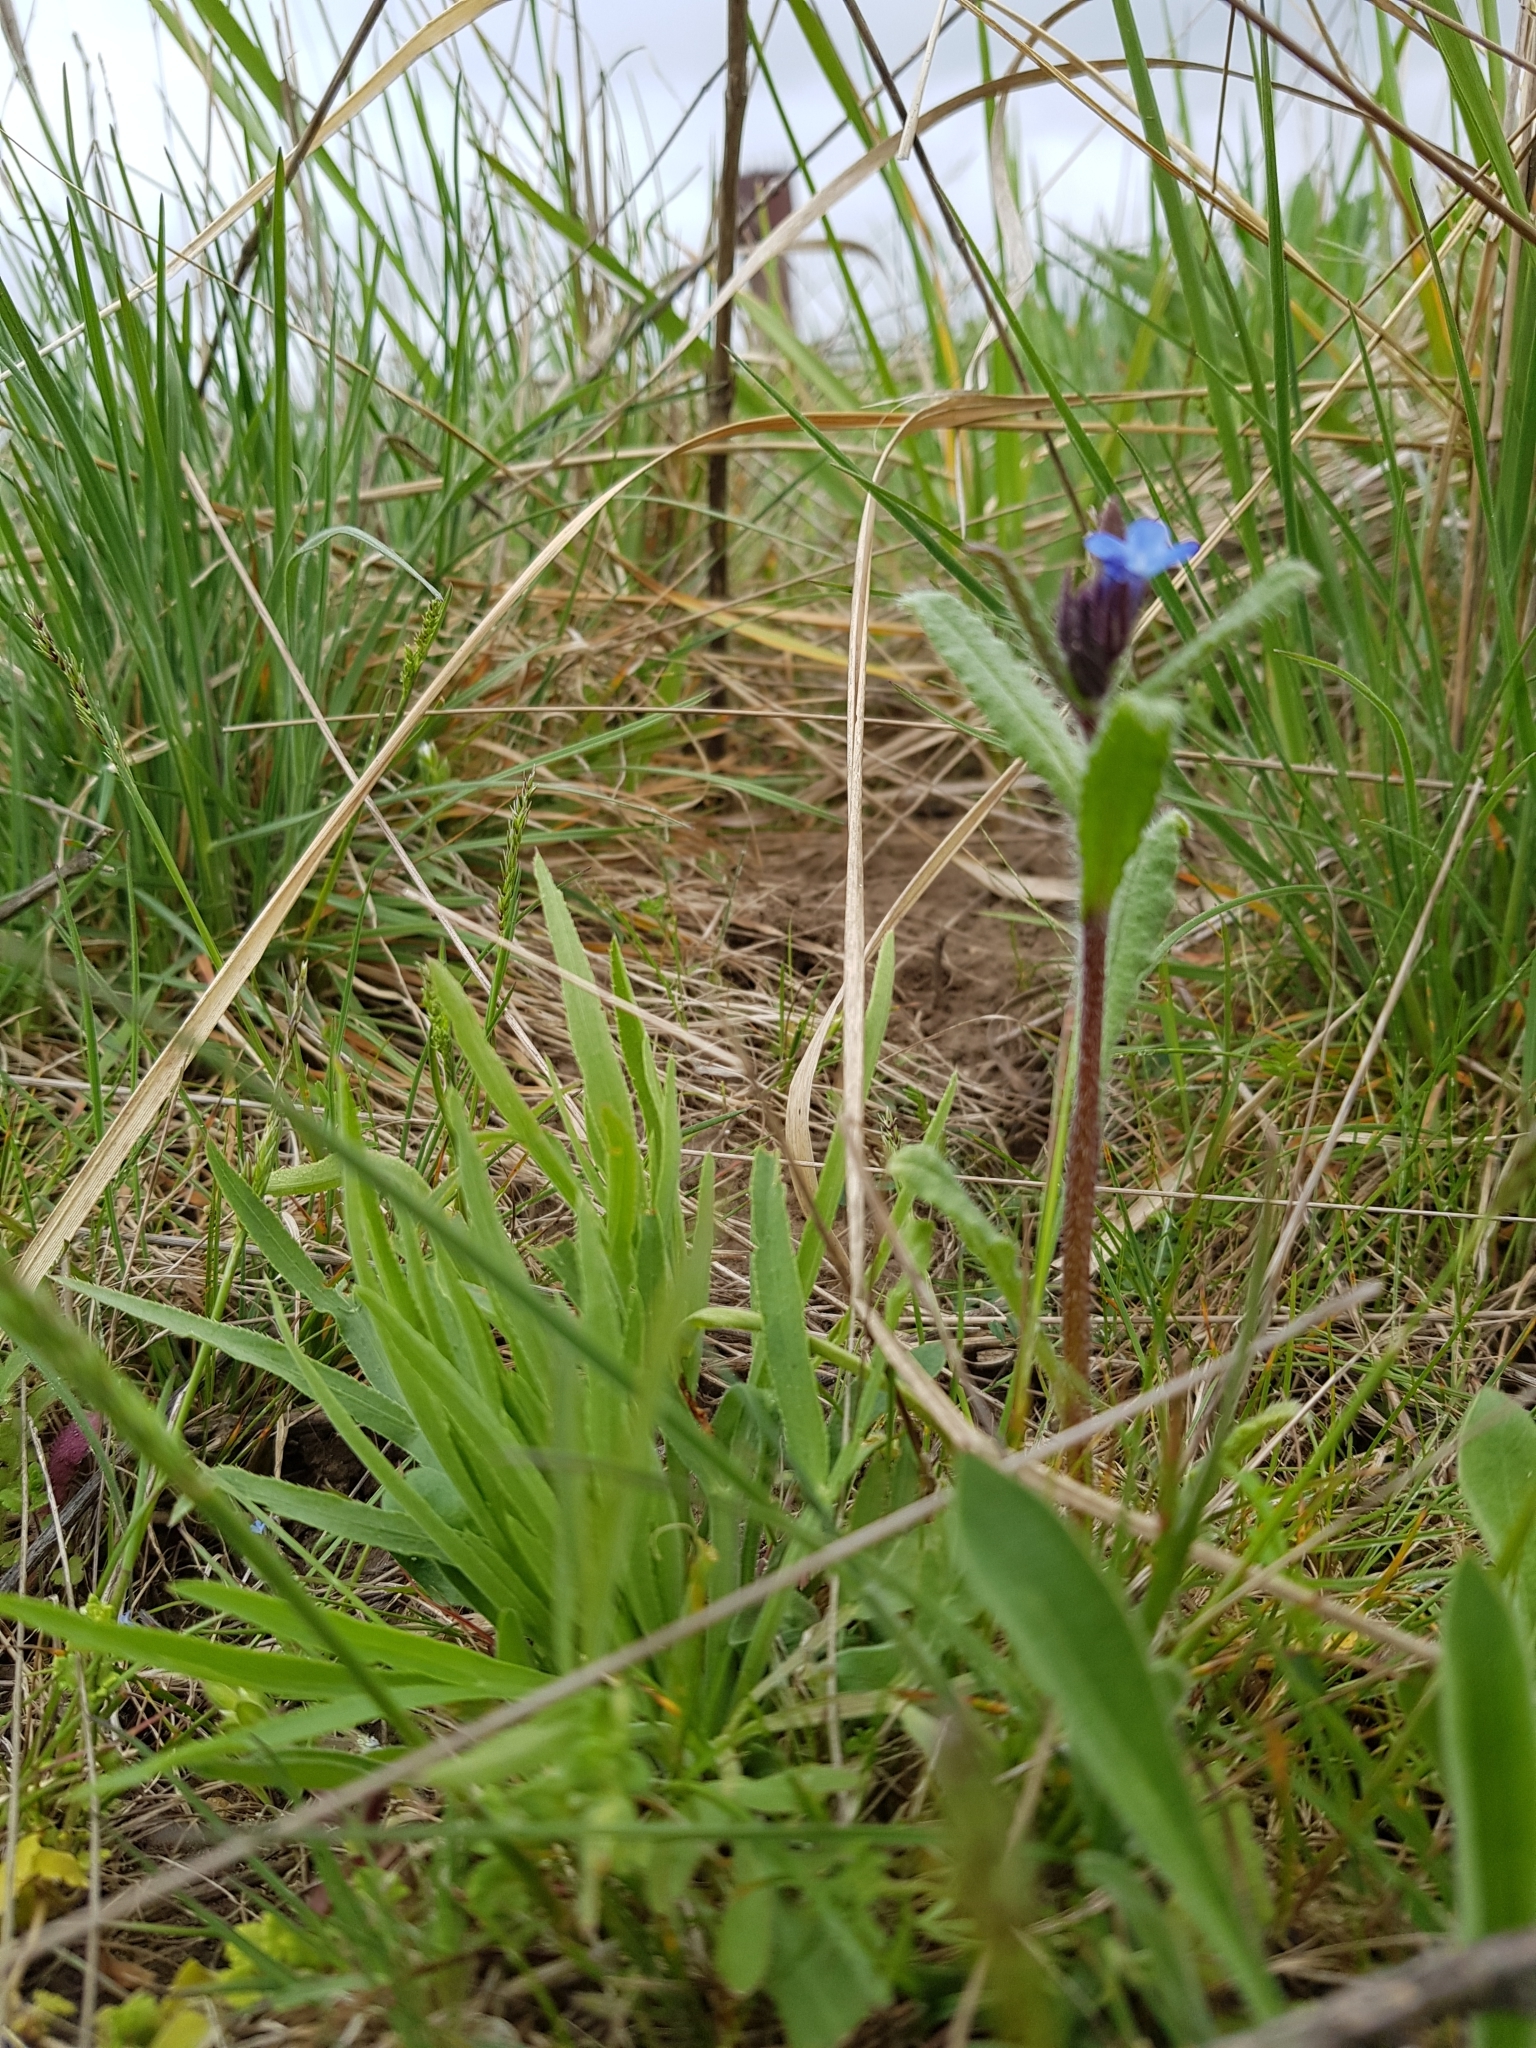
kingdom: Plantae
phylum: Tracheophyta
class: Magnoliopsida
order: Boraginales
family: Boraginaceae
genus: Anchusa
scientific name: Anchusa azurea
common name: Garden anchusa
